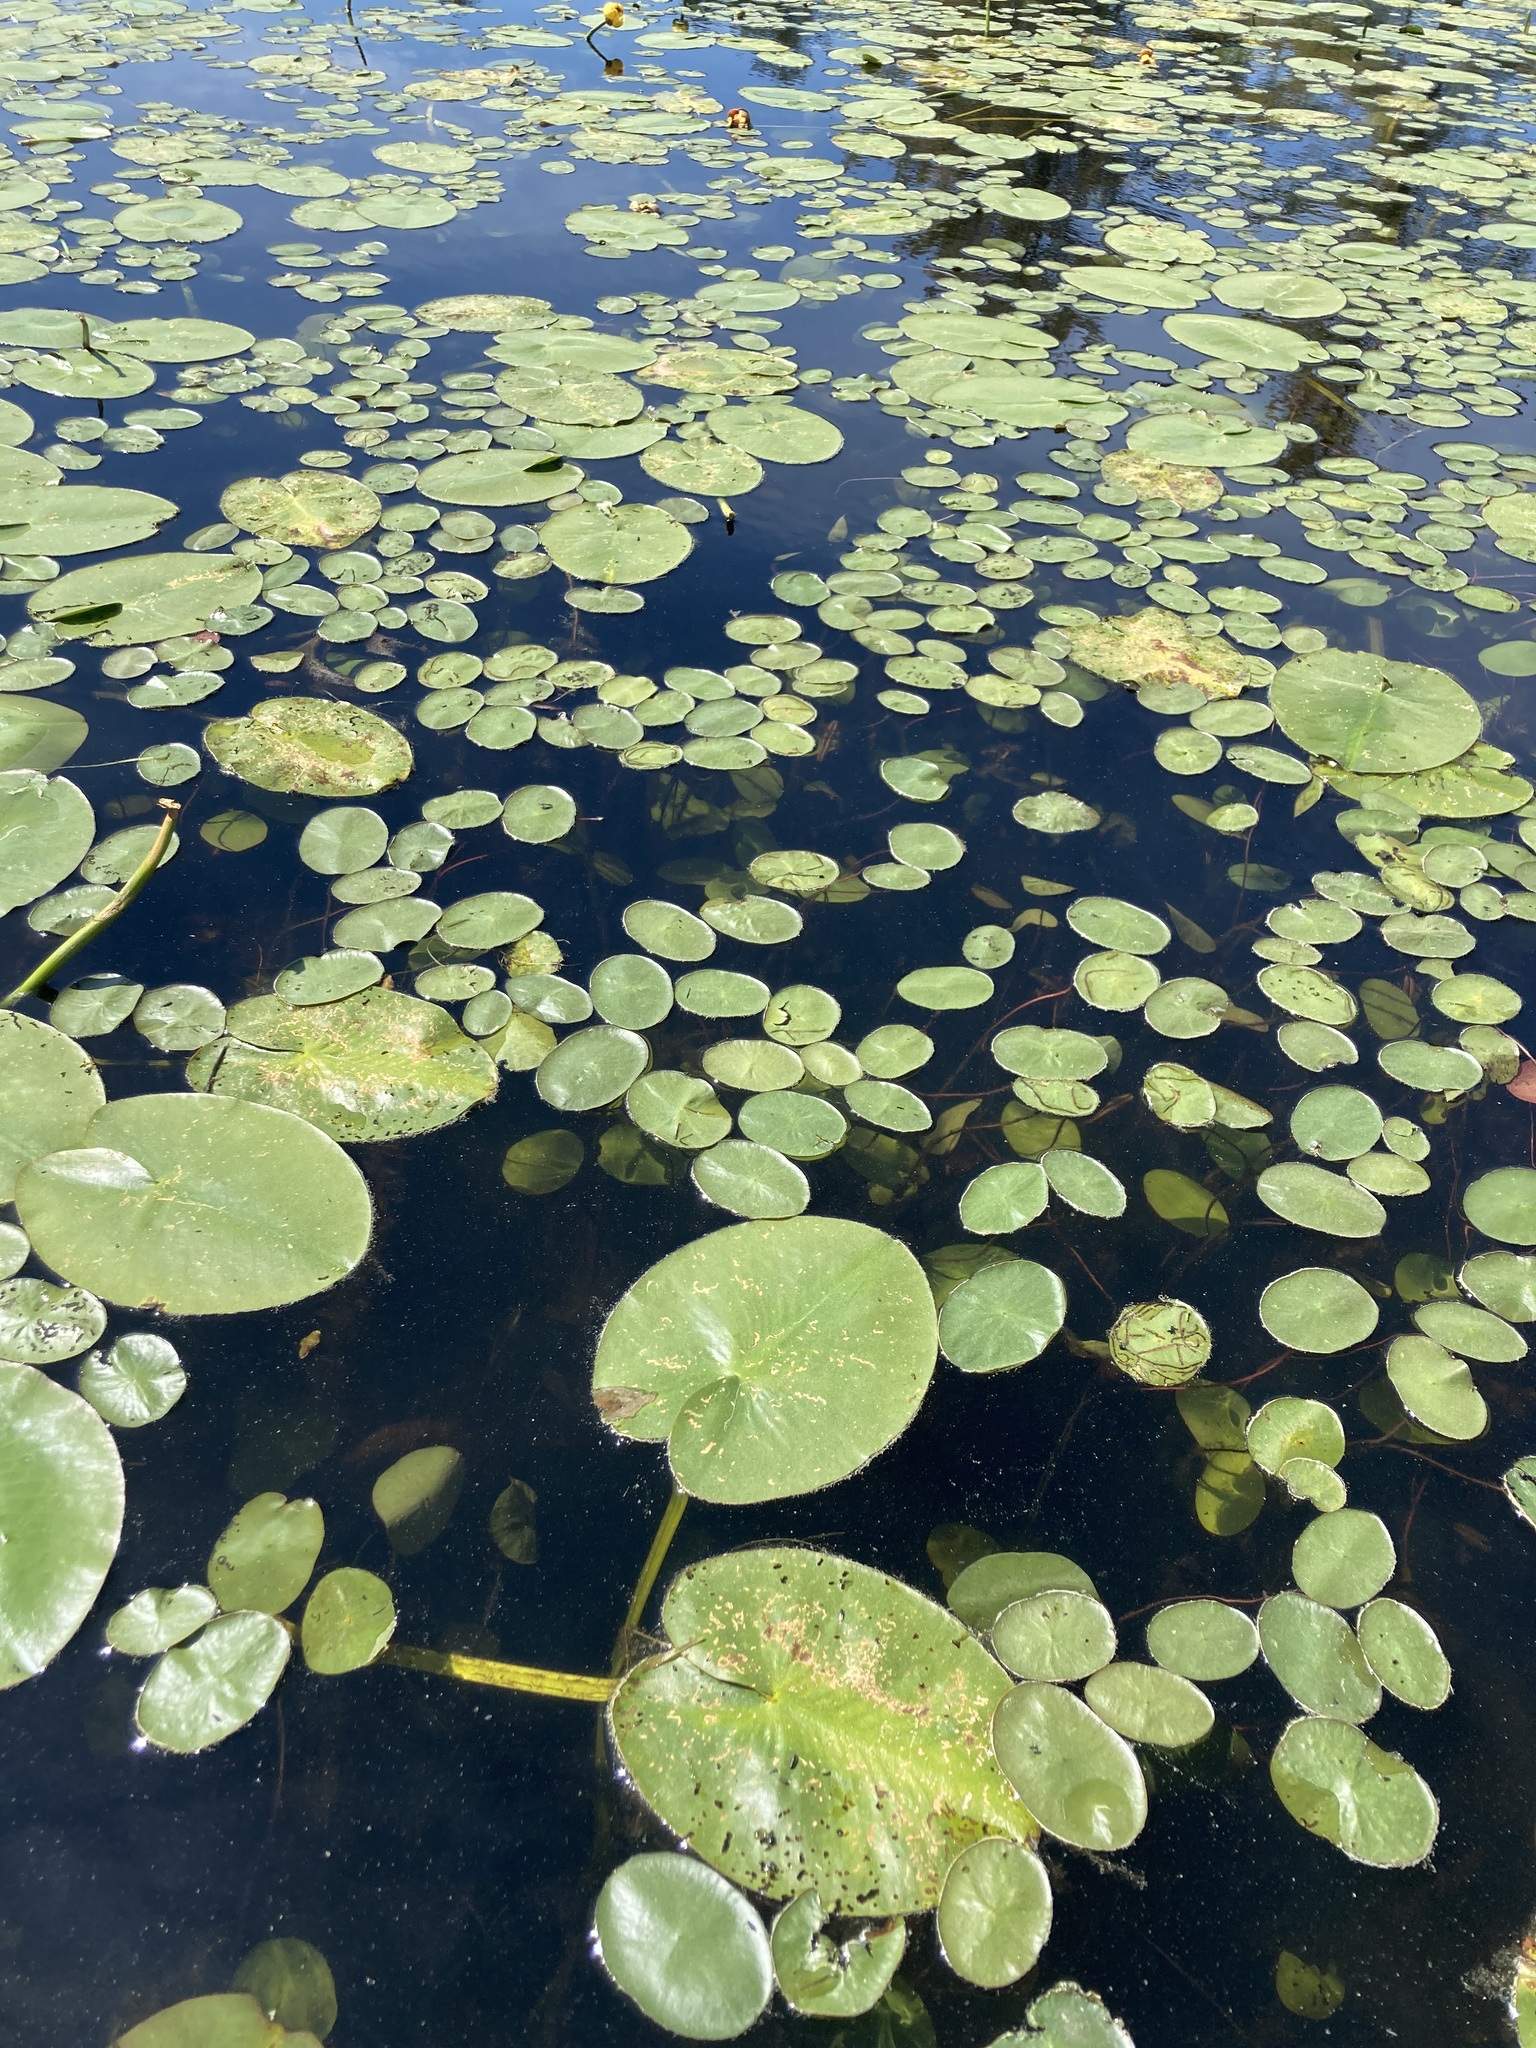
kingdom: Plantae
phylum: Tracheophyta
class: Magnoliopsida
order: Nymphaeales
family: Cabombaceae
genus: Brasenia
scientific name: Brasenia schreberi
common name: Water-shield
